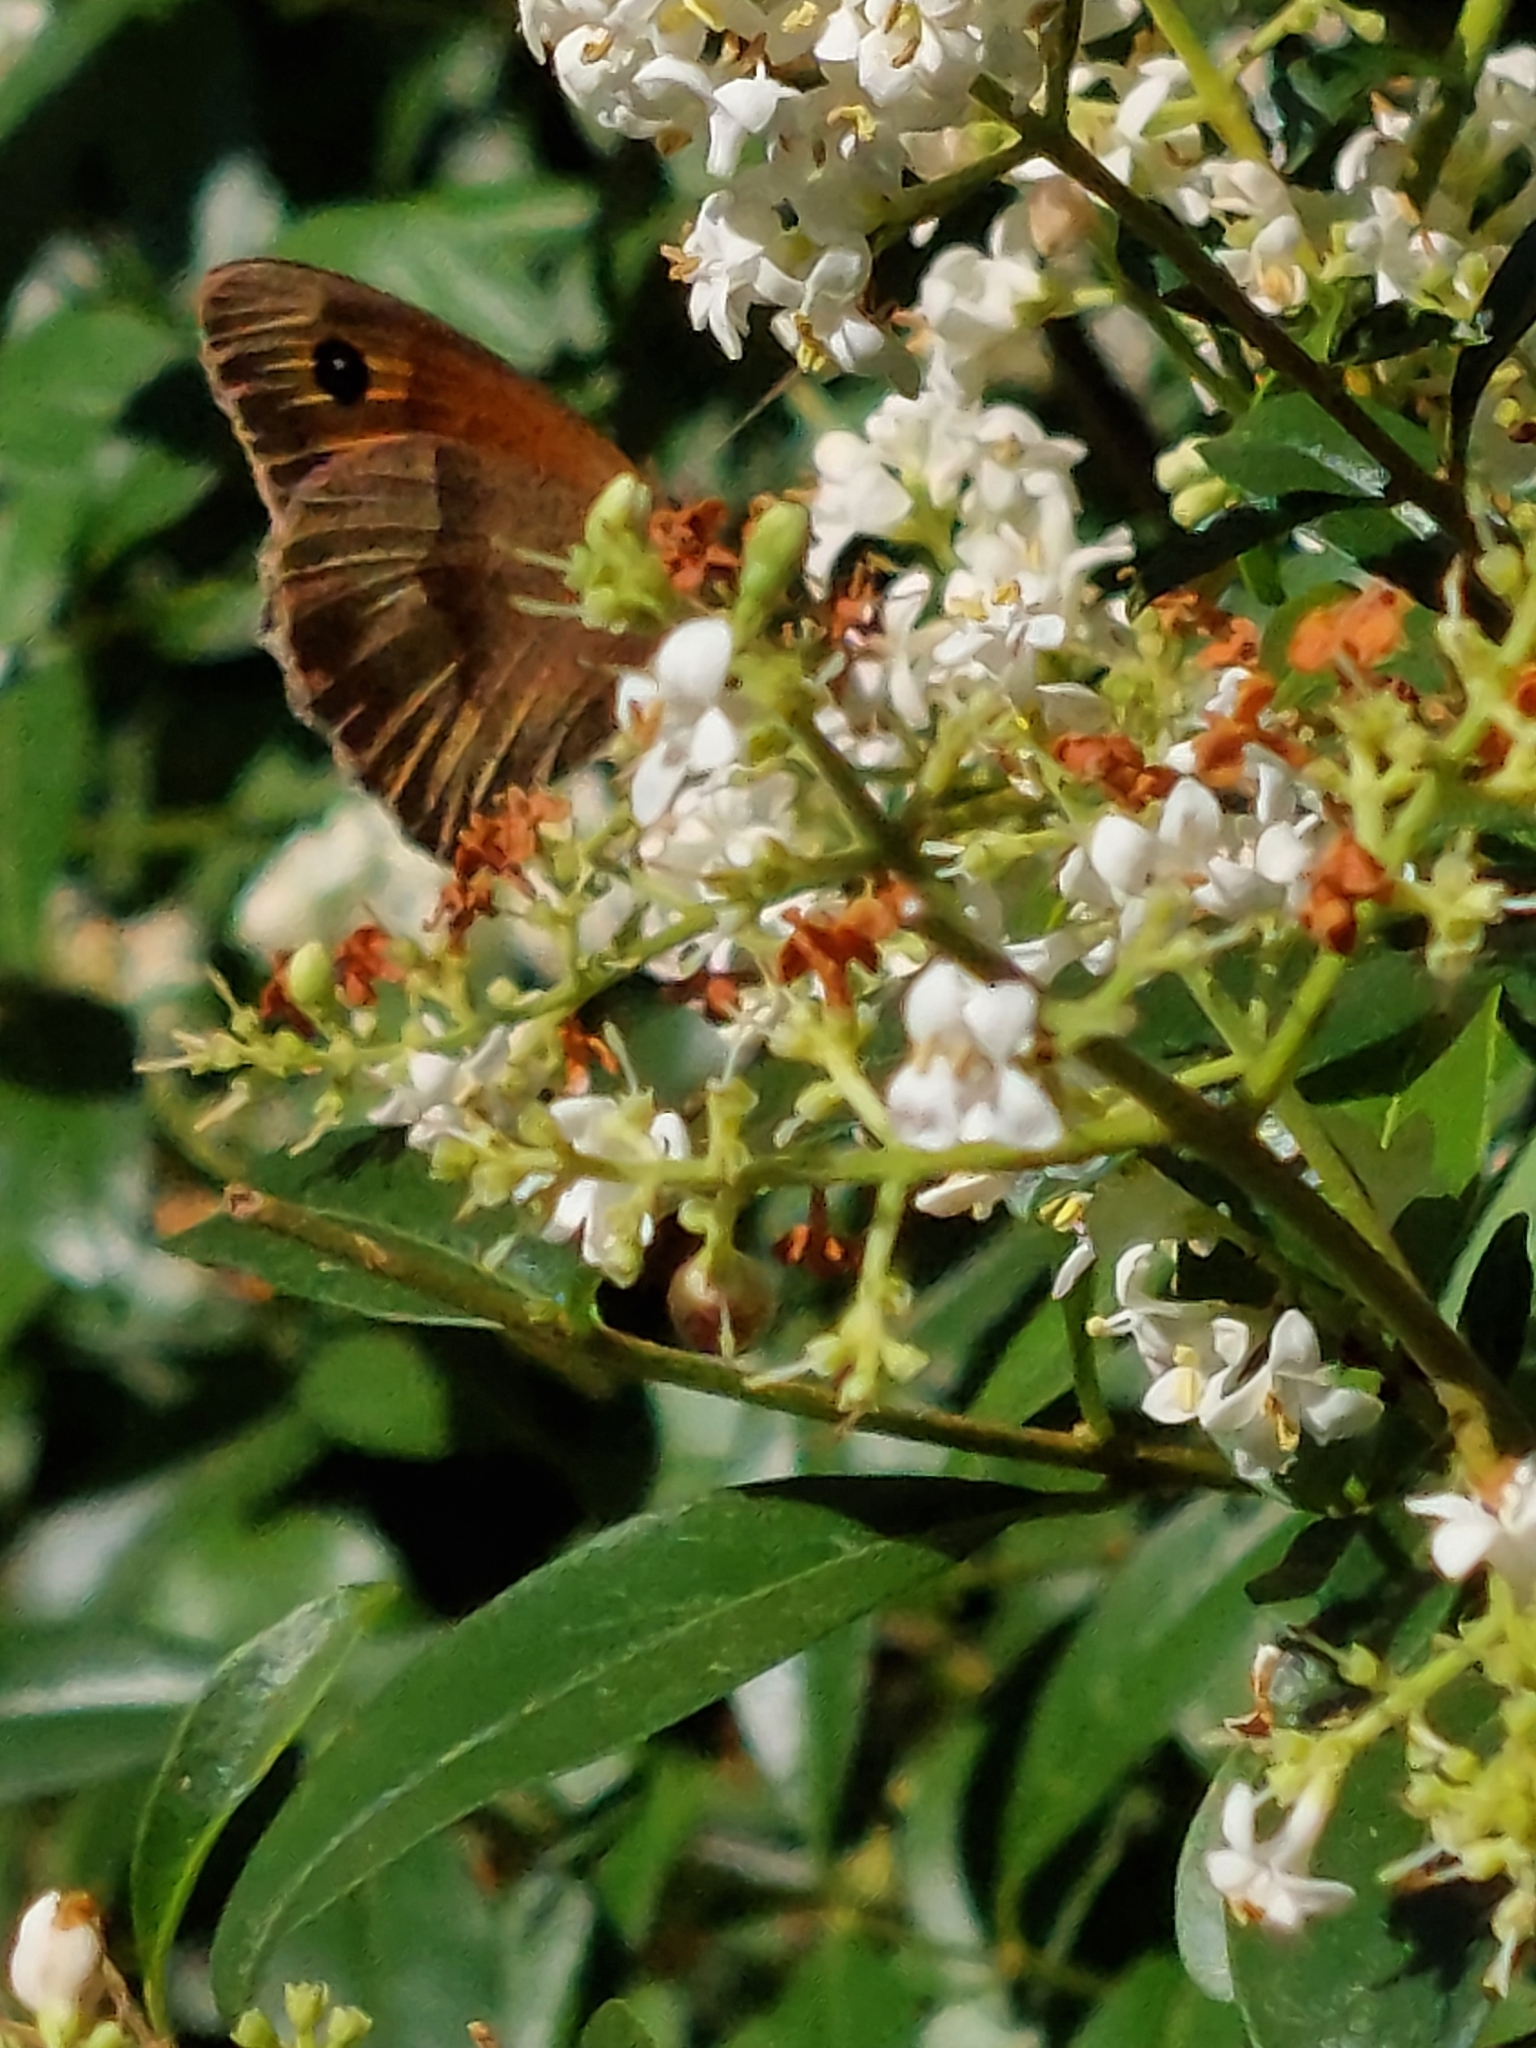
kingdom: Animalia
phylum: Arthropoda
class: Insecta
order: Lepidoptera
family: Nymphalidae
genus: Maniola
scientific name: Maniola jurtina
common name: Meadow brown
